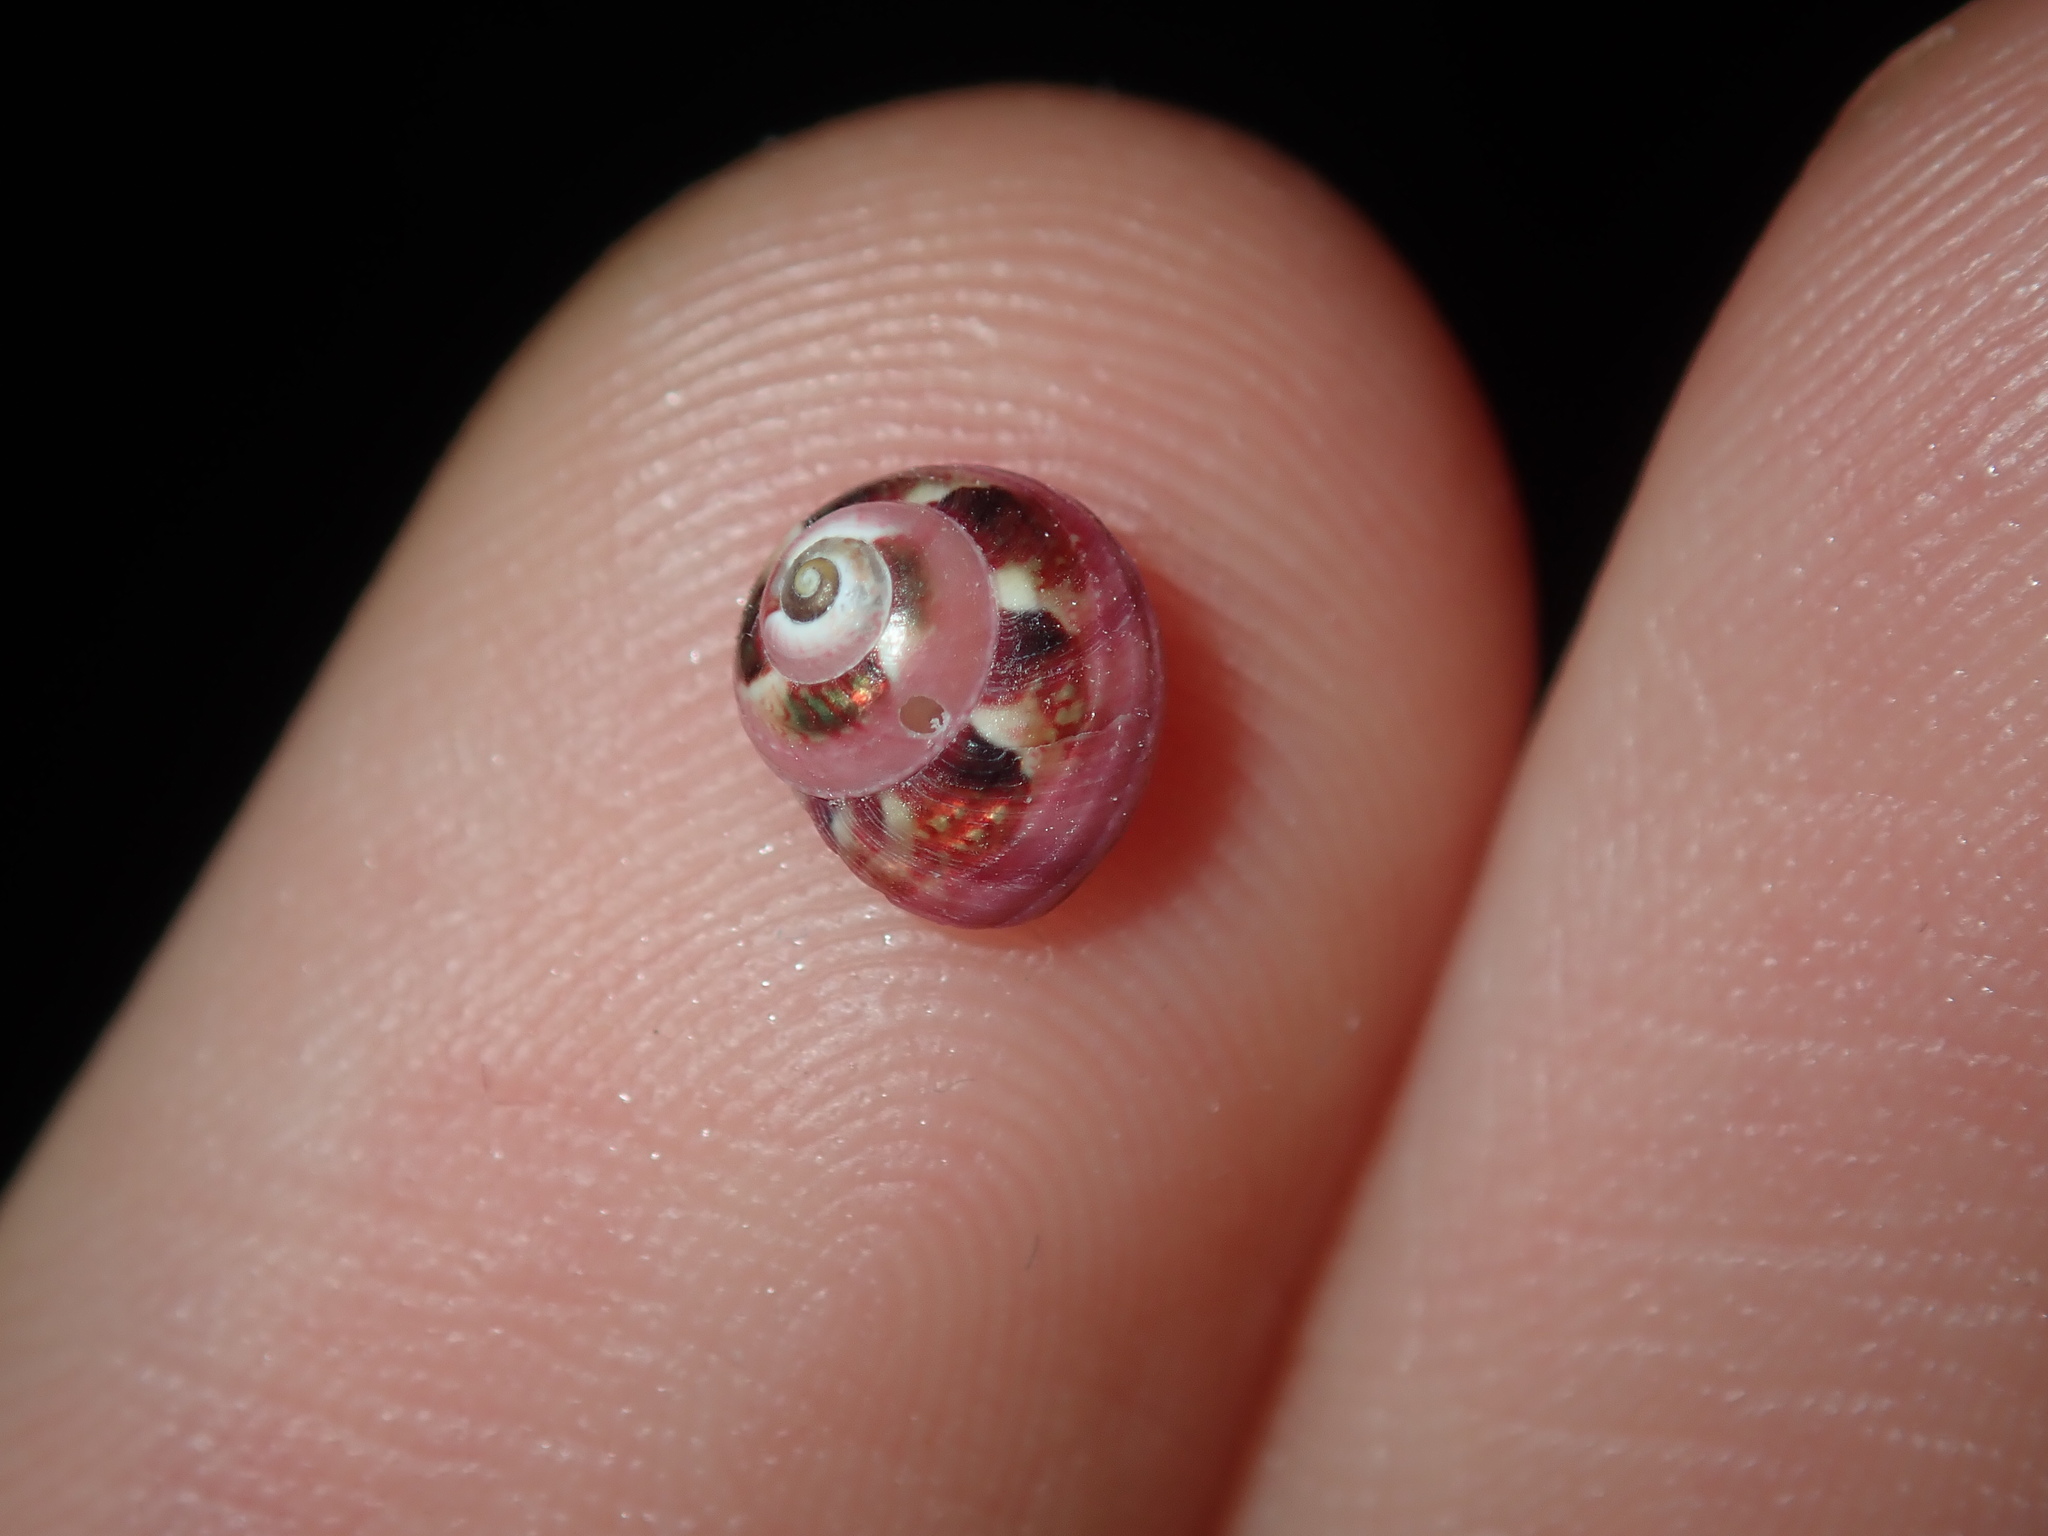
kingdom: Animalia
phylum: Mollusca
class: Gastropoda
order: Trochida
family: Trochidae
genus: Cantharidella
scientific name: Cantharidella picturata
